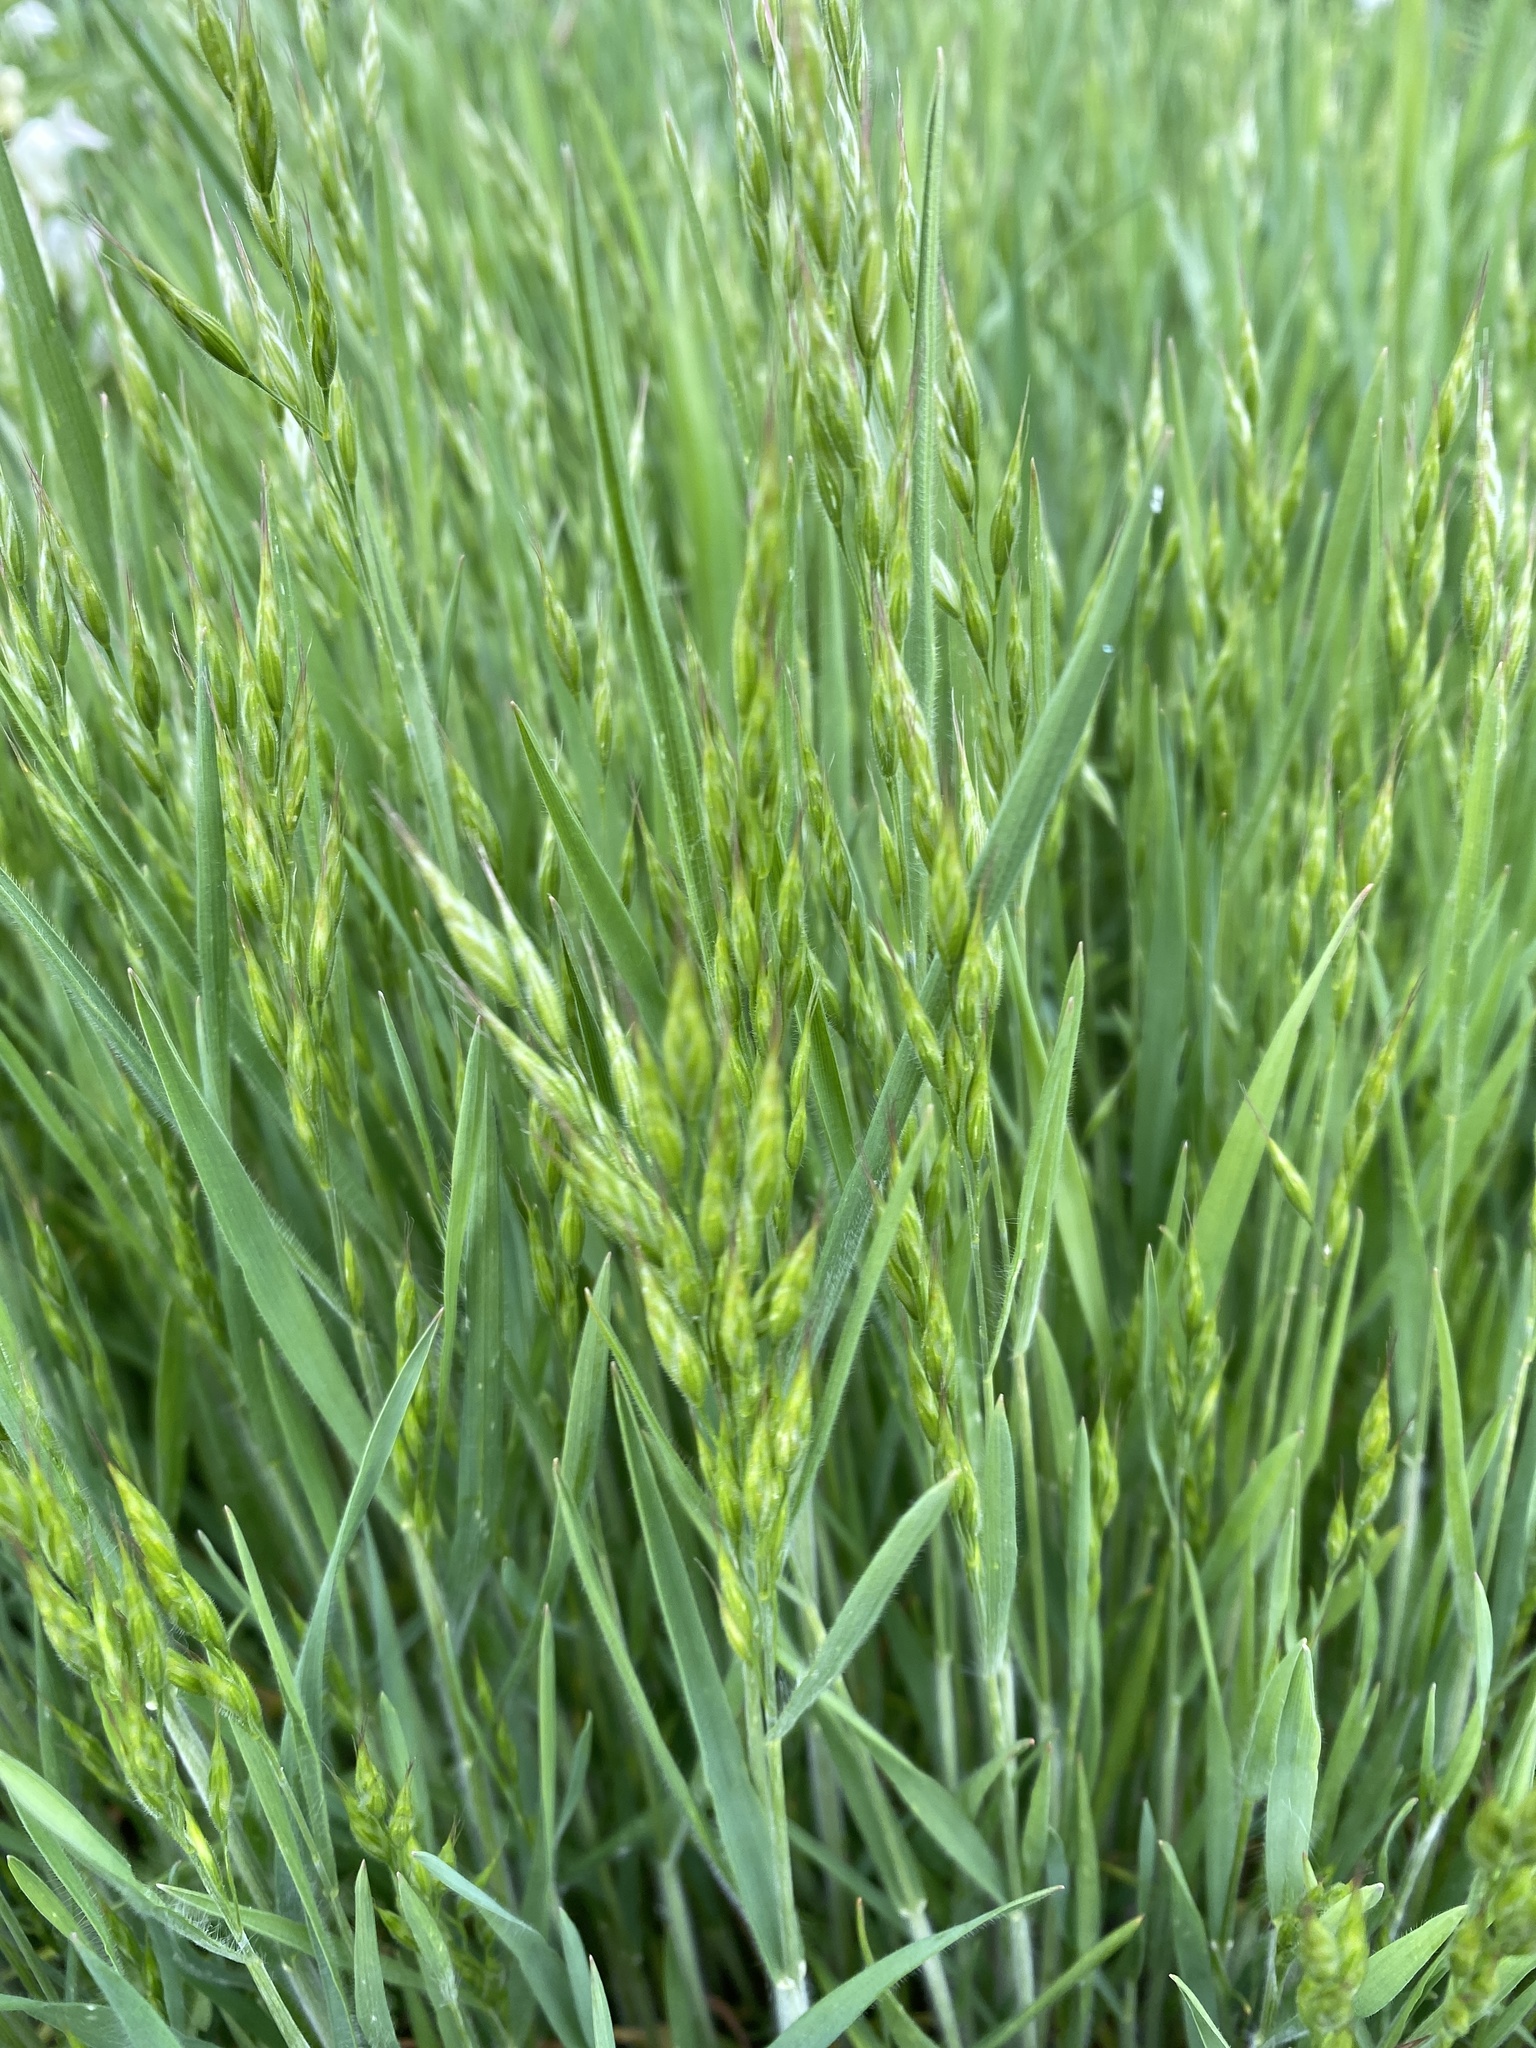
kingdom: Plantae
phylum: Tracheophyta
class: Liliopsida
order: Poales
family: Poaceae
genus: Bromus
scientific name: Bromus hordeaceus
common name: Soft brome
